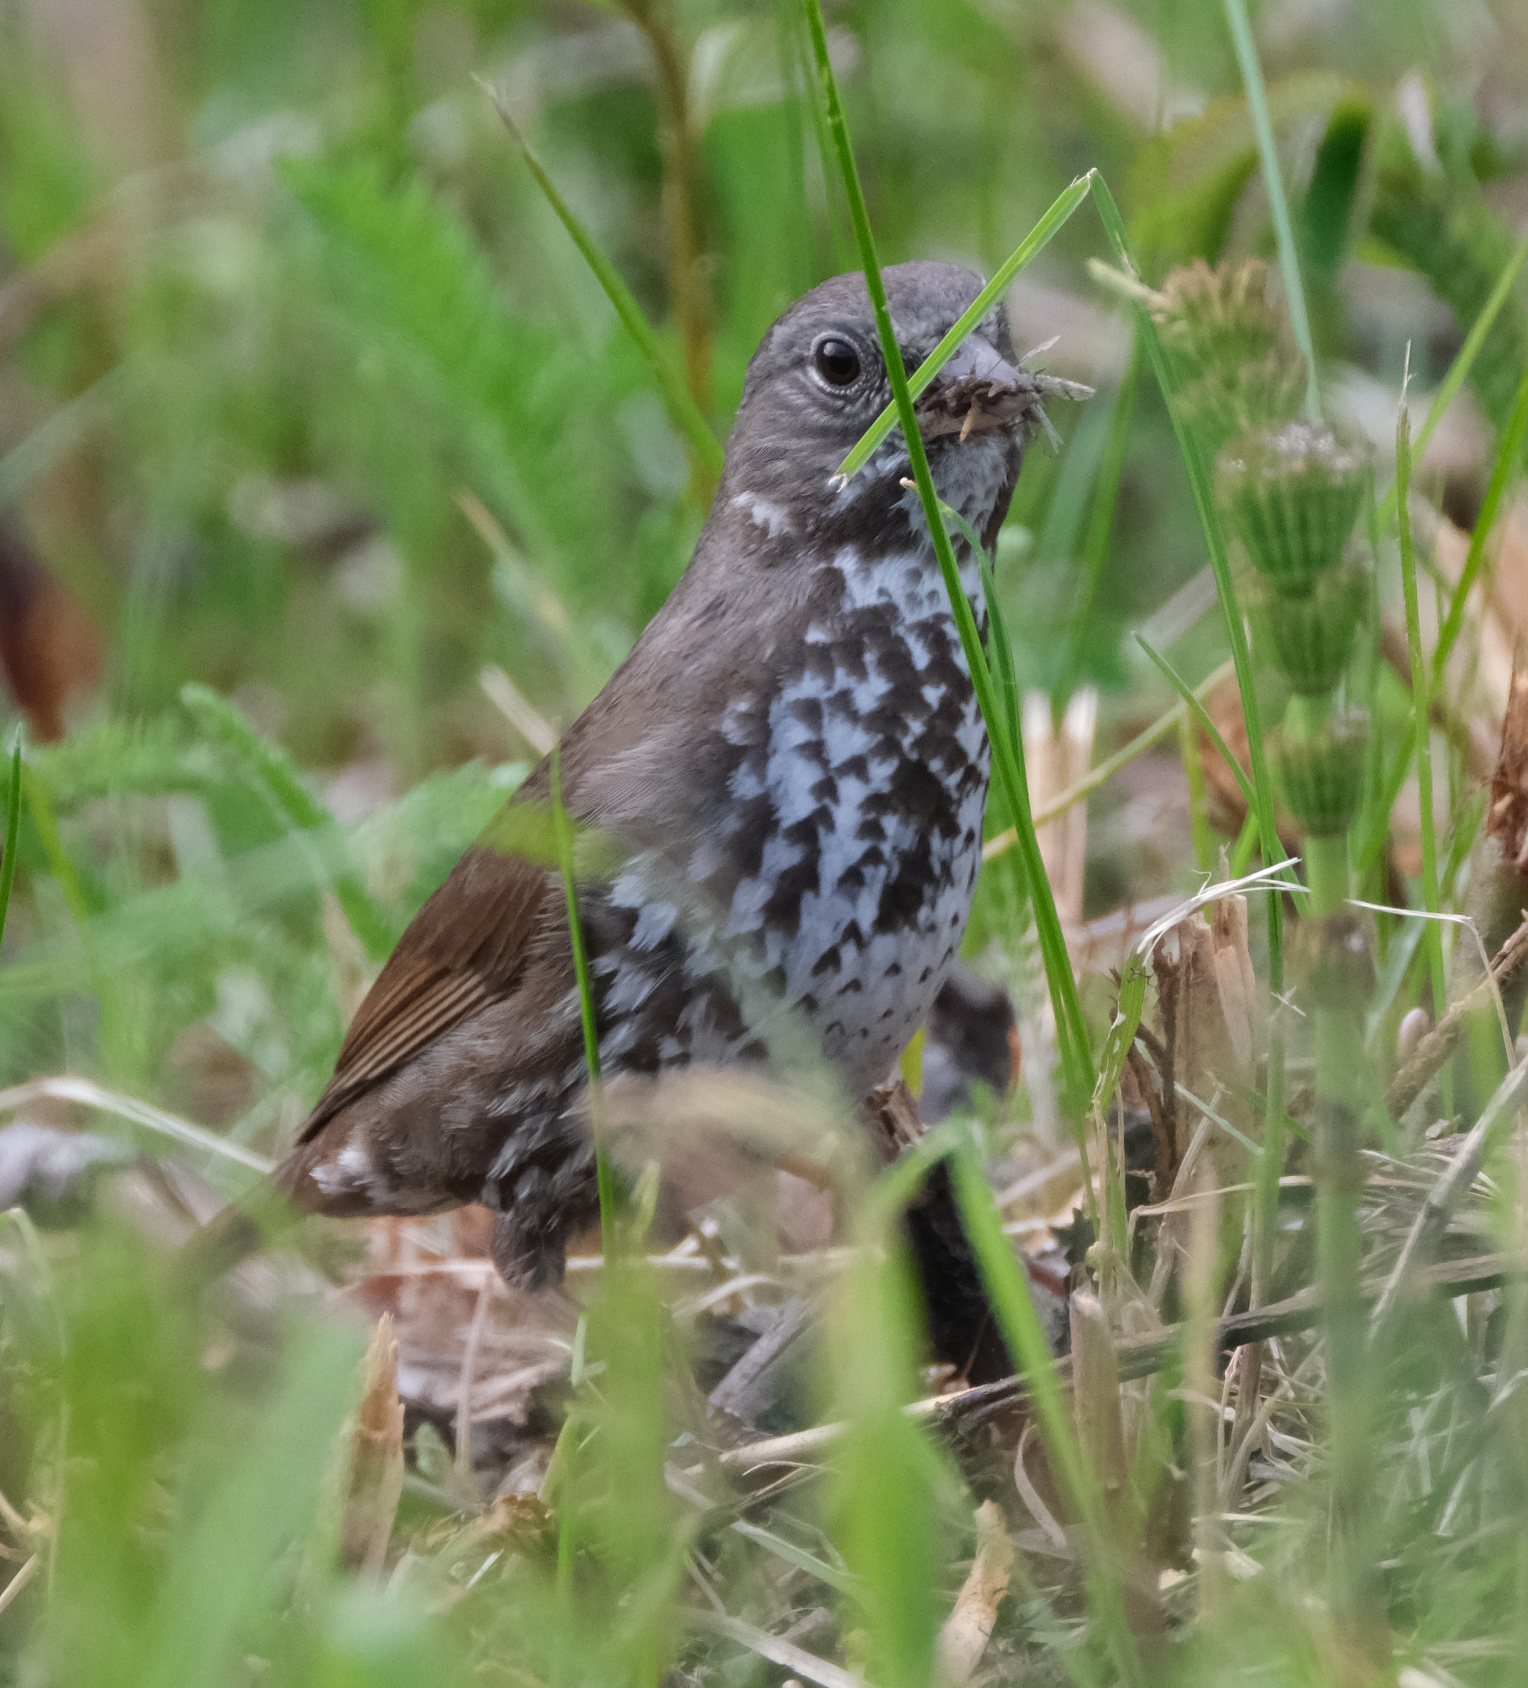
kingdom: Animalia
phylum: Chordata
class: Aves
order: Passeriformes
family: Passerellidae
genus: Passerella
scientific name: Passerella iliaca
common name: Fox sparrow
